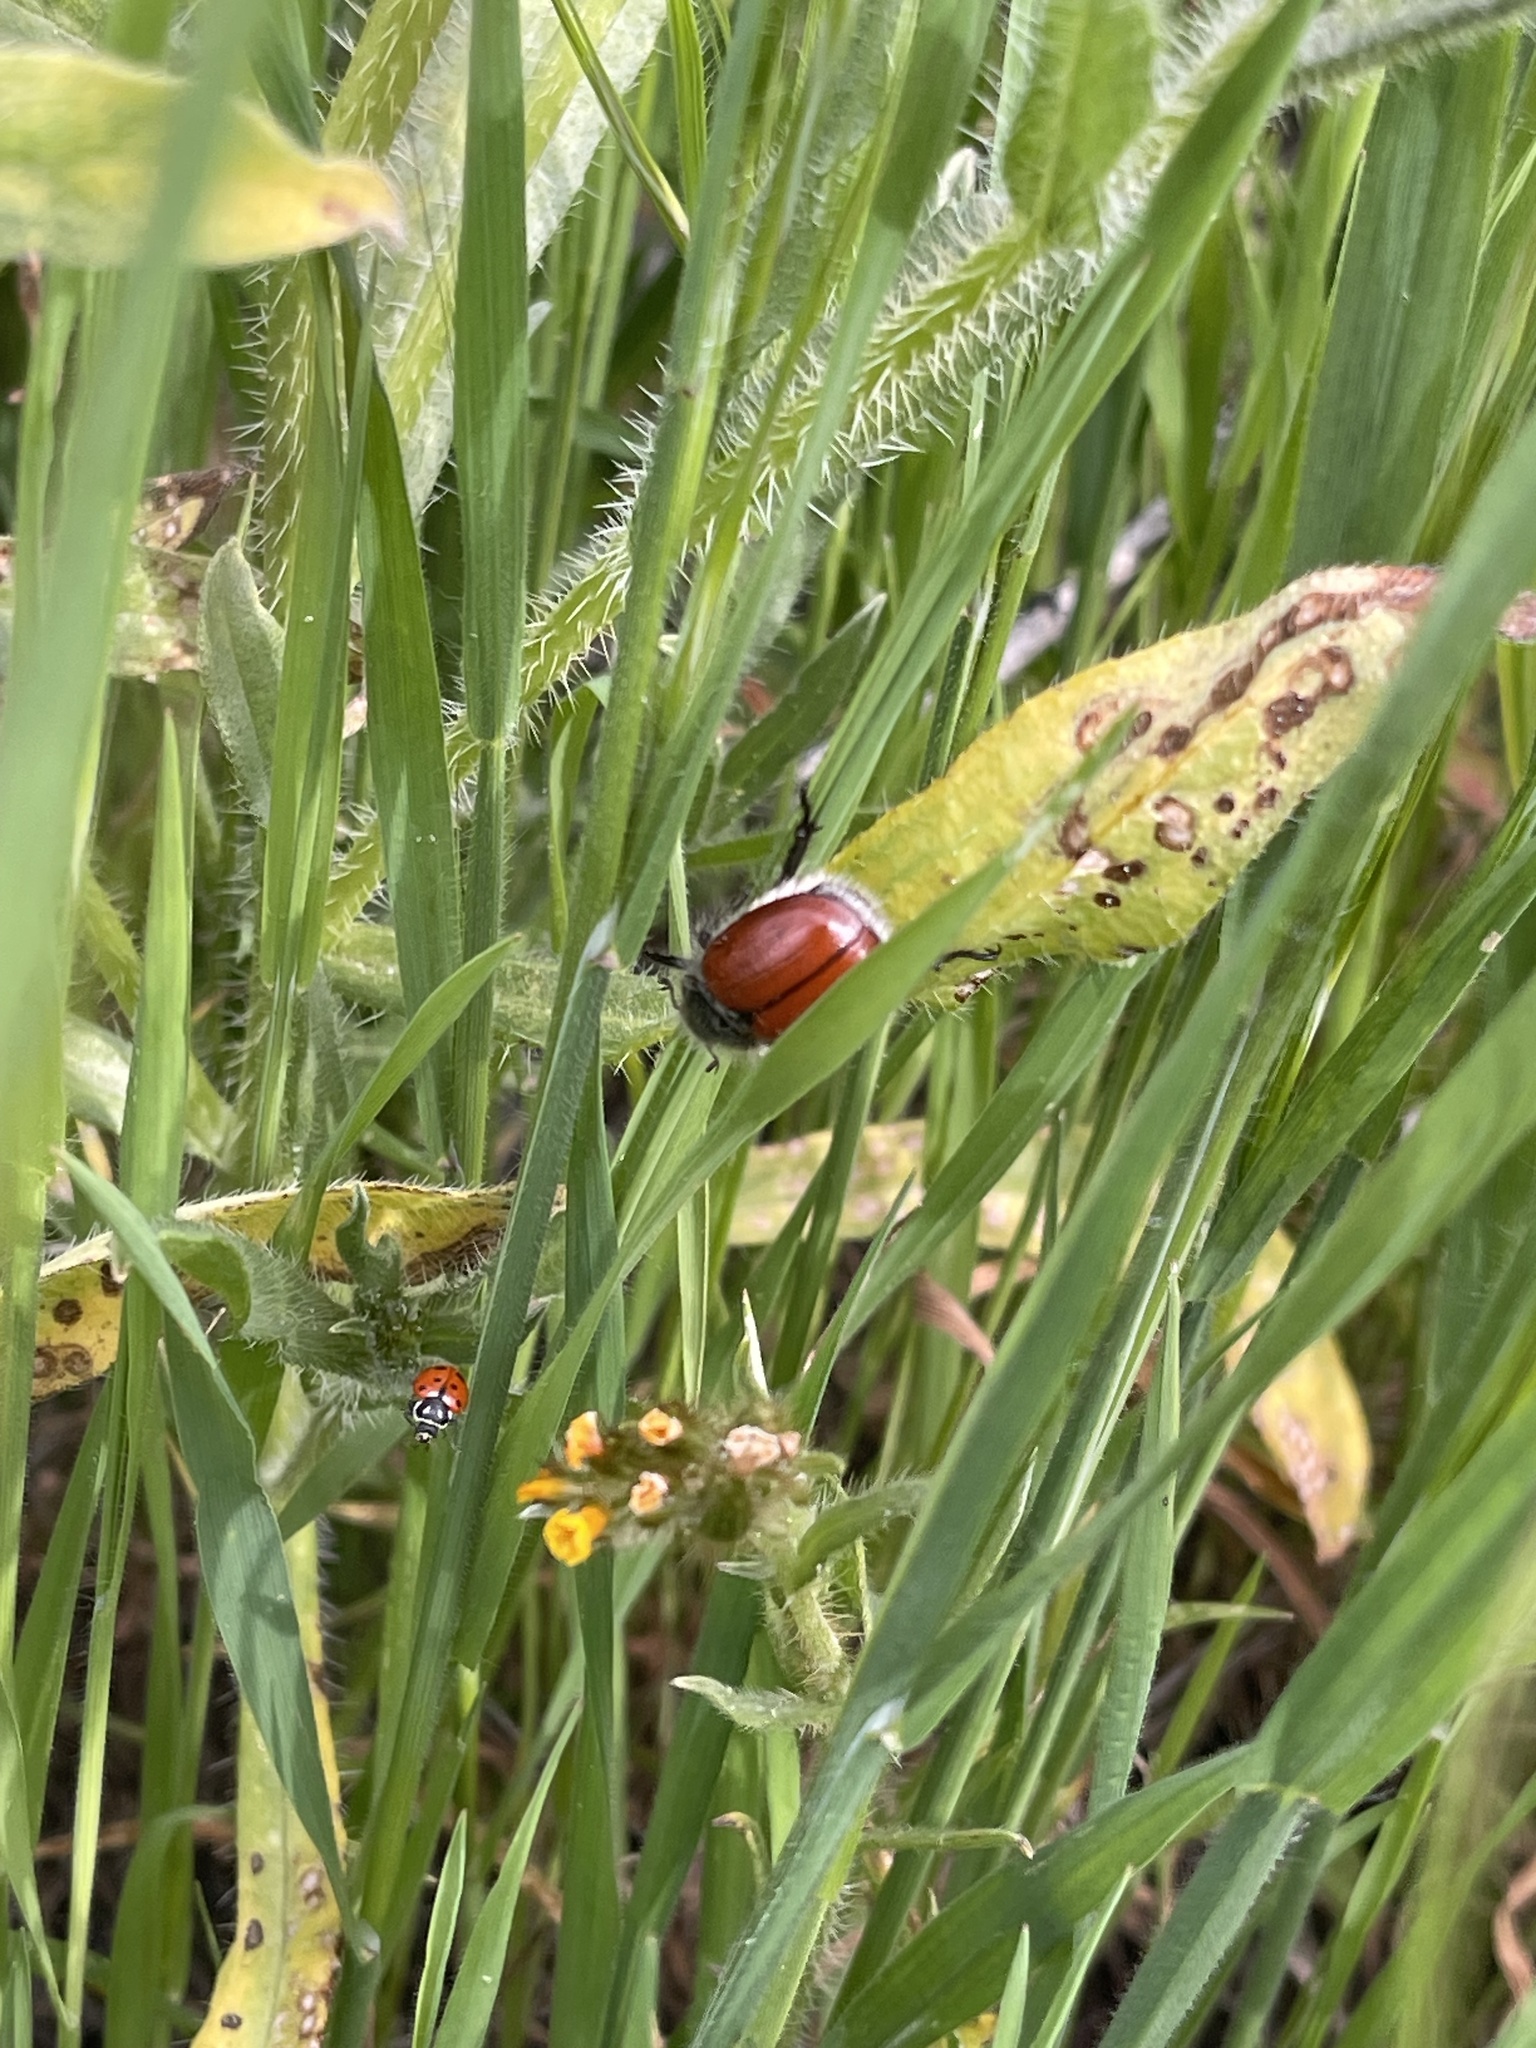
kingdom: Animalia
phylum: Arthropoda
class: Insecta
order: Coleoptera
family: Scarabaeidae
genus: Paracotalpa
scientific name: Paracotalpa ursina
